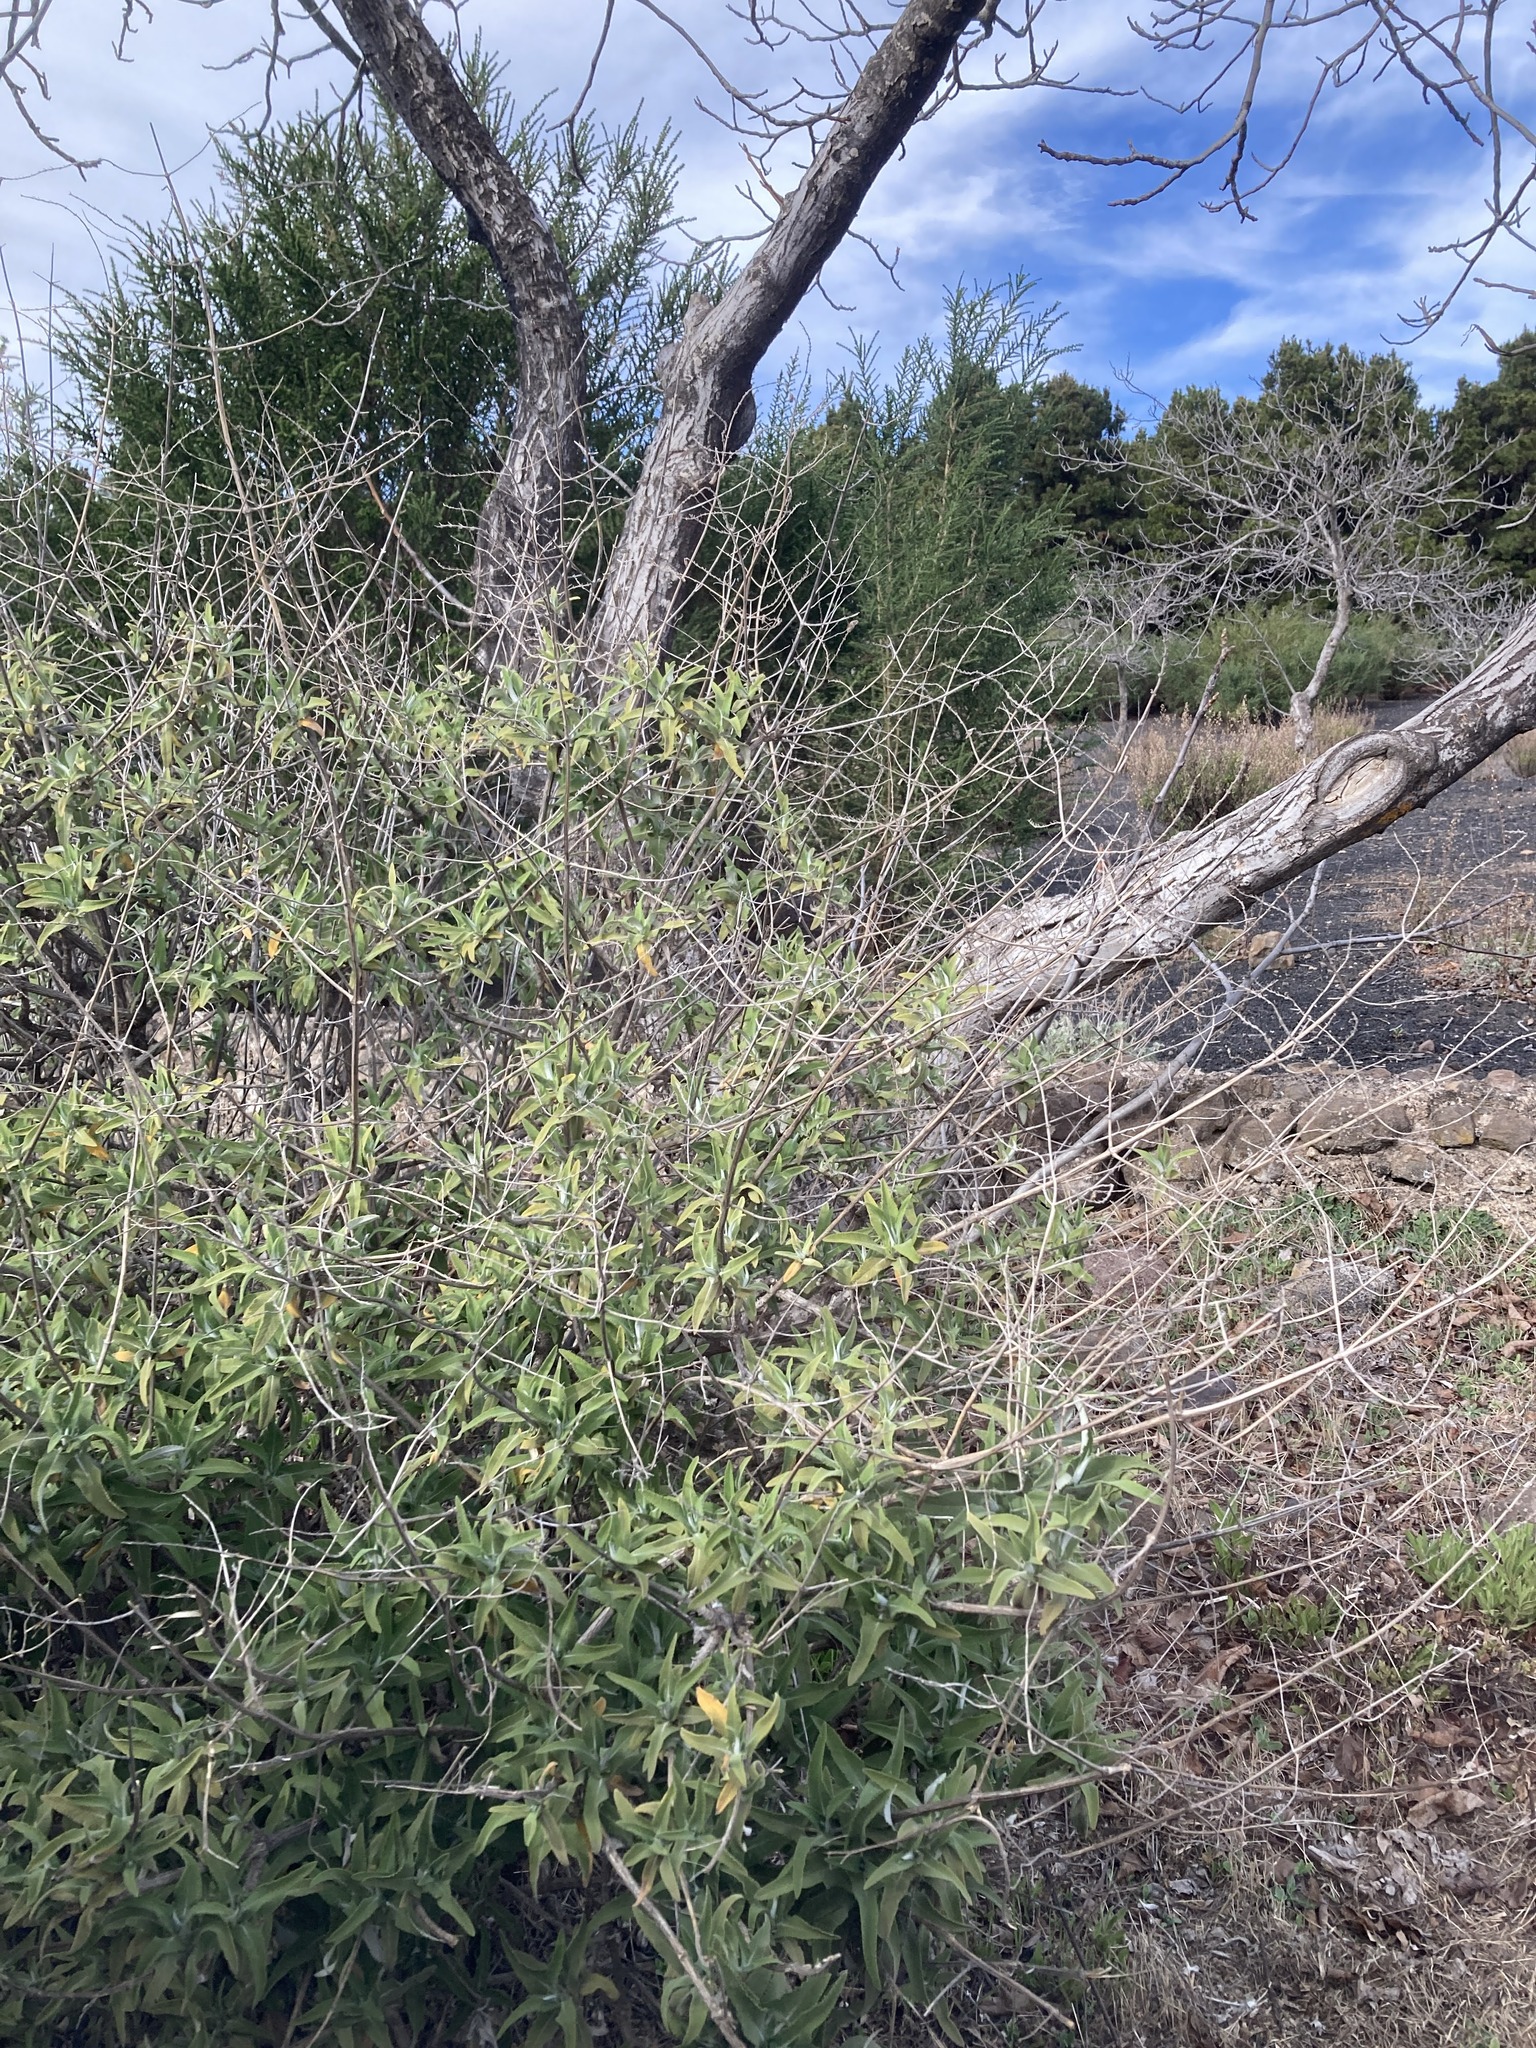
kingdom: Plantae
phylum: Tracheophyta
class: Magnoliopsida
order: Lamiales
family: Lamiaceae
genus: Salvia
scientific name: Salvia canariensis
